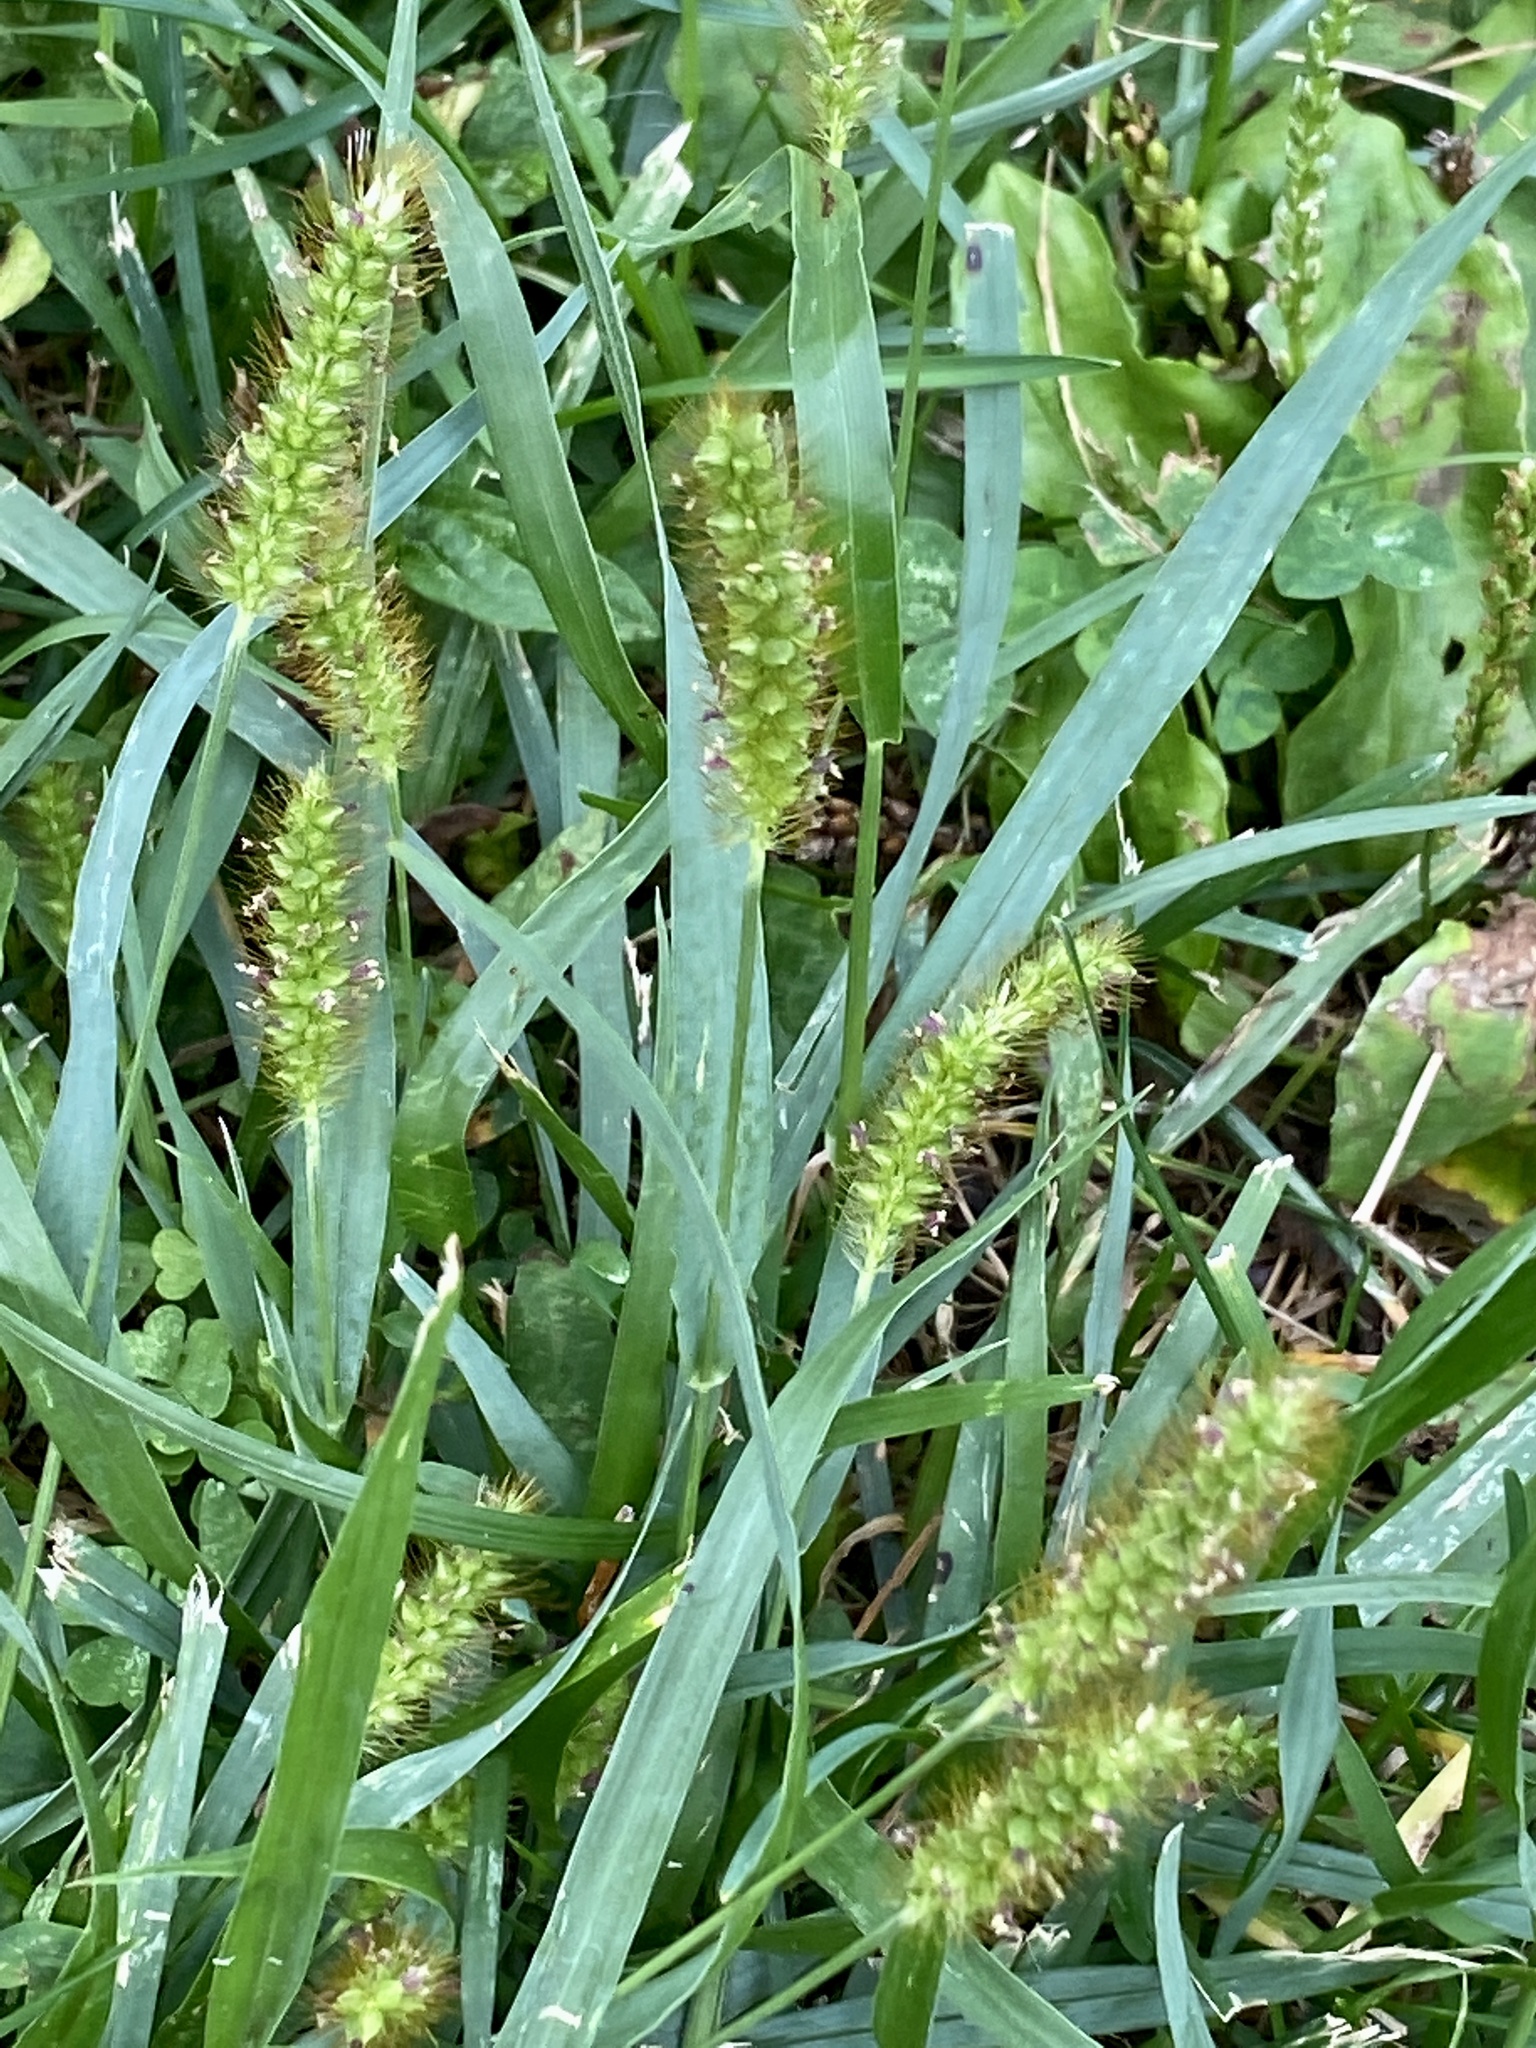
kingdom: Plantae
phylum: Tracheophyta
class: Liliopsida
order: Poales
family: Poaceae
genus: Setaria
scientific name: Setaria pumila
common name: Yellow bristle-grass
